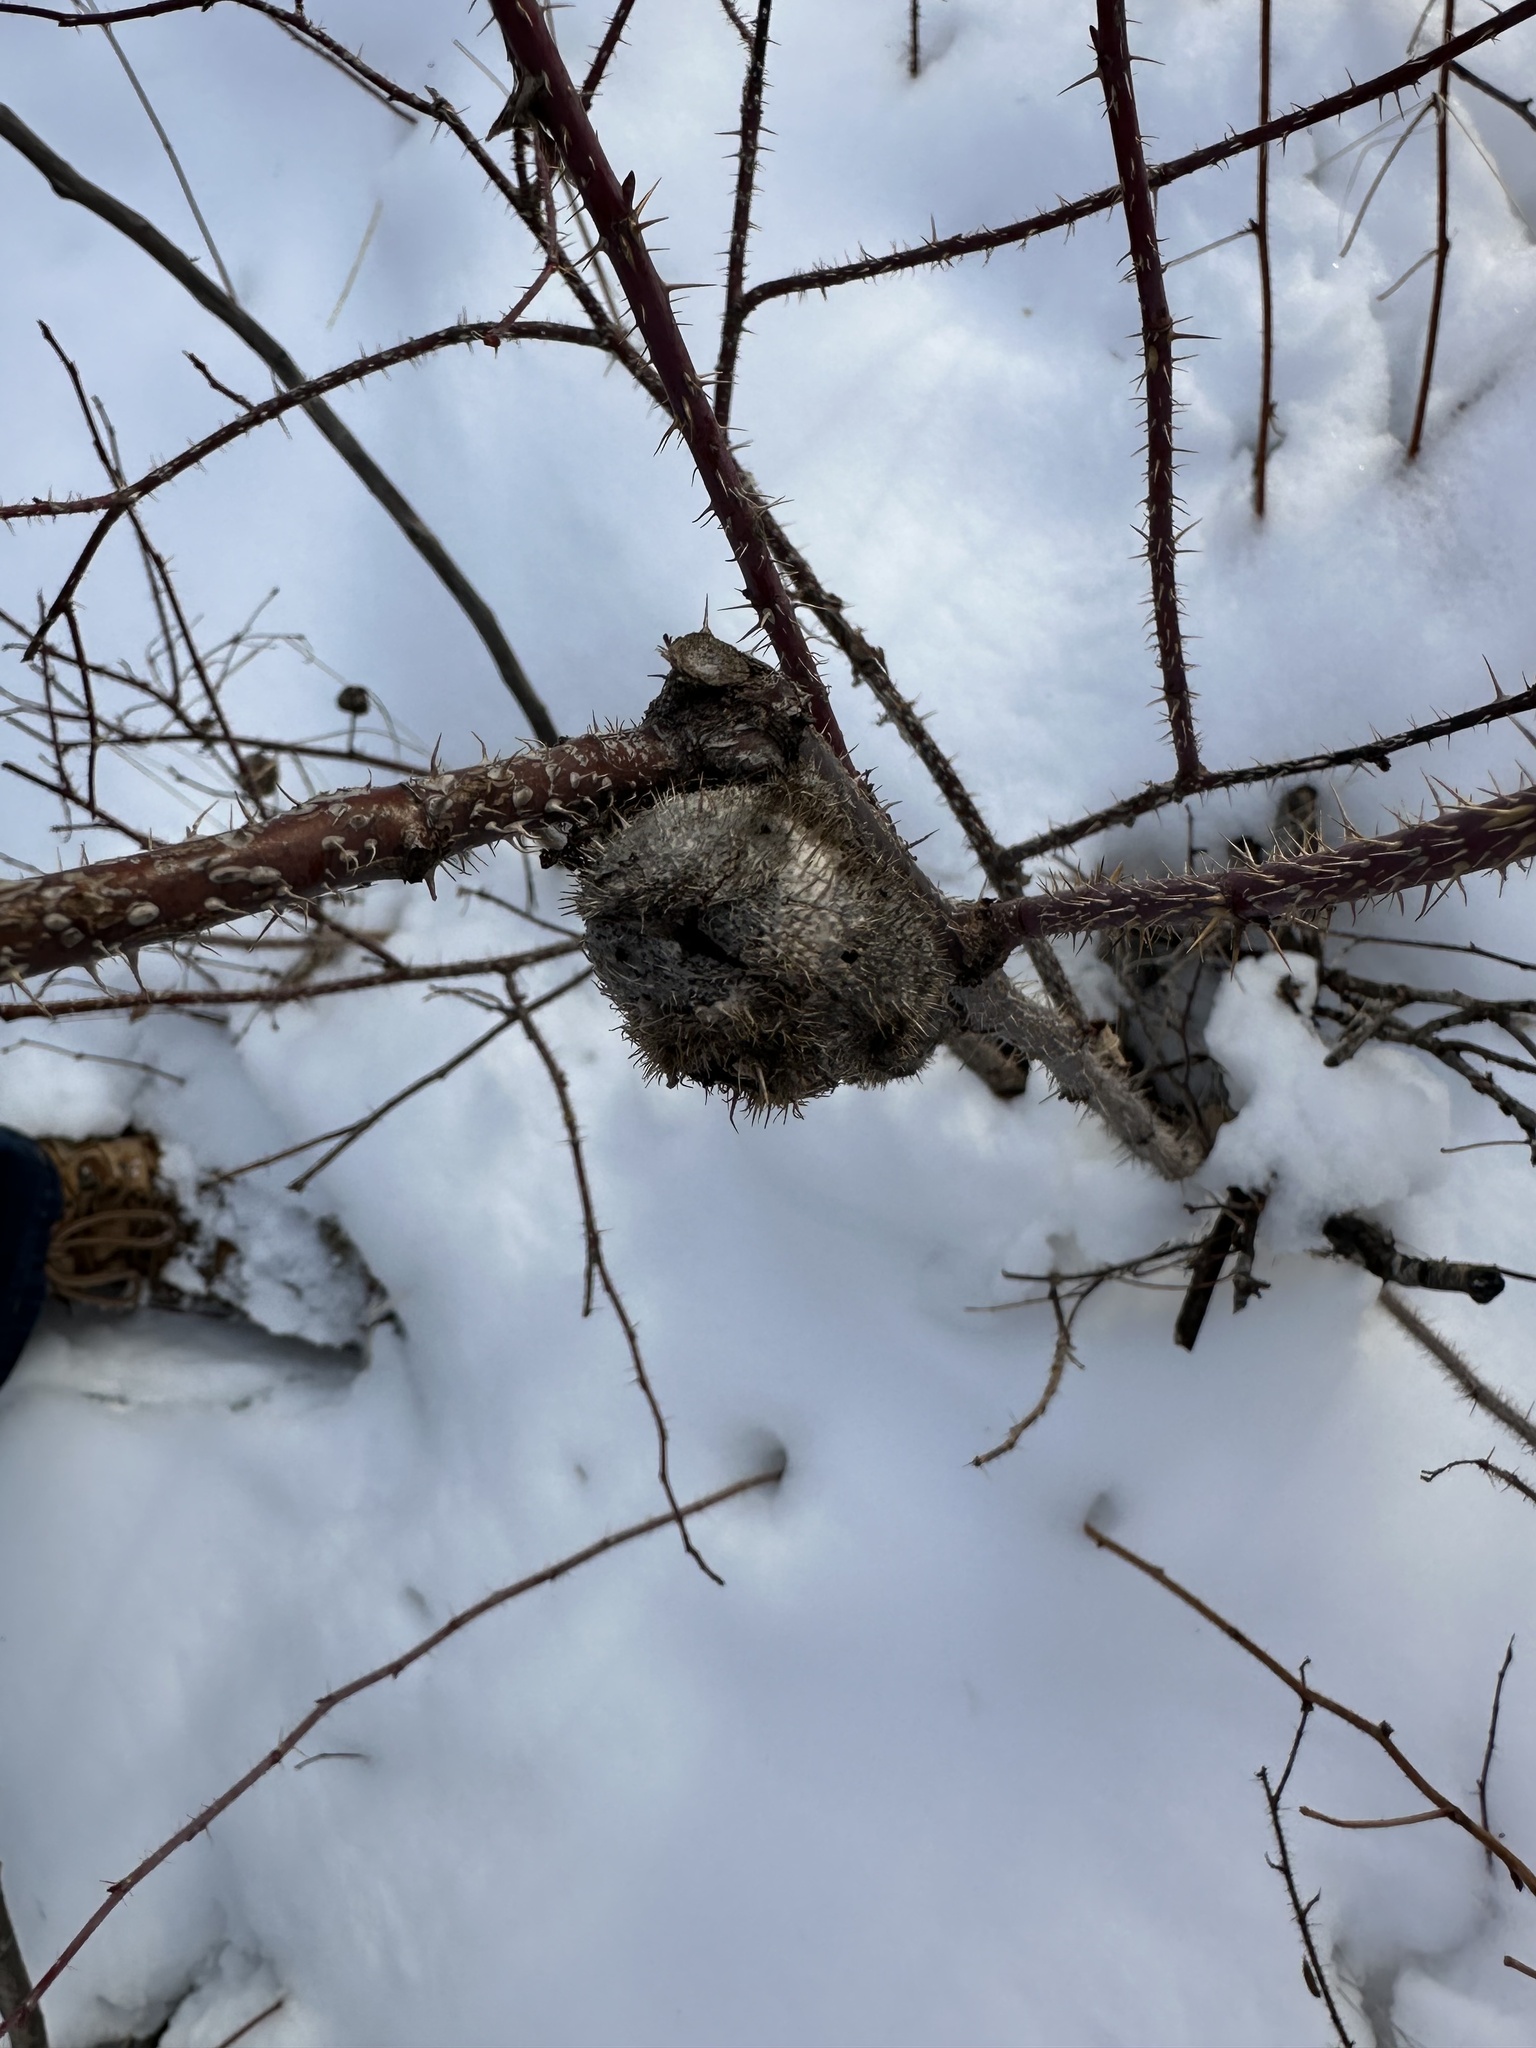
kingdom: Animalia
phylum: Arthropoda
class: Insecta
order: Hymenoptera
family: Cynipidae
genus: Diplolepis
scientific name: Diplolepis spinosa
